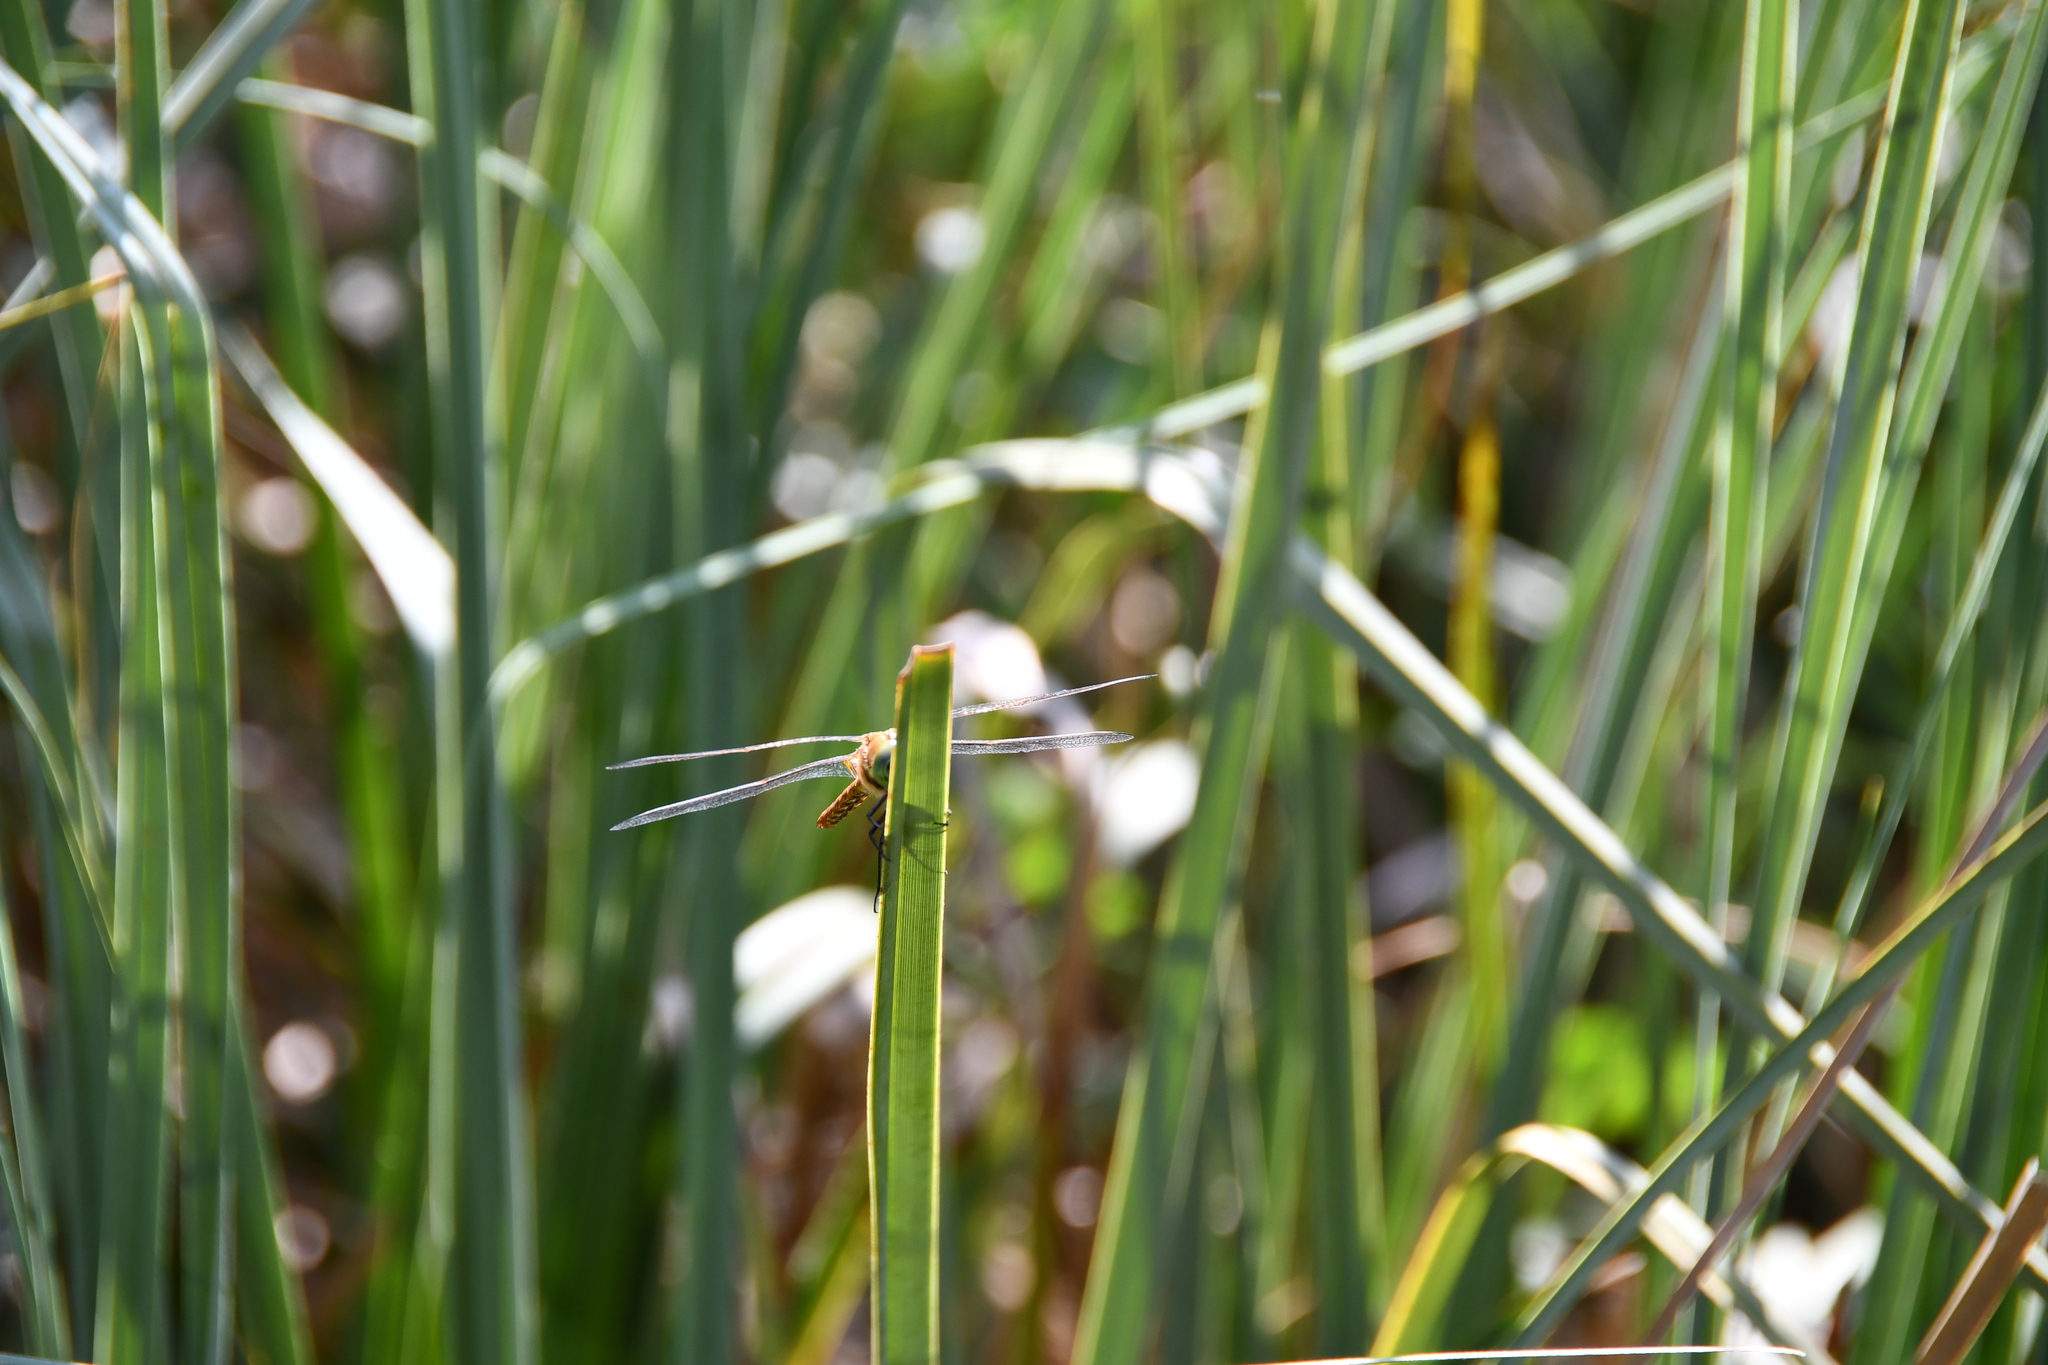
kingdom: Animalia
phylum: Arthropoda
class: Insecta
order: Odonata
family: Aeshnidae
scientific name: Aeshnidae
